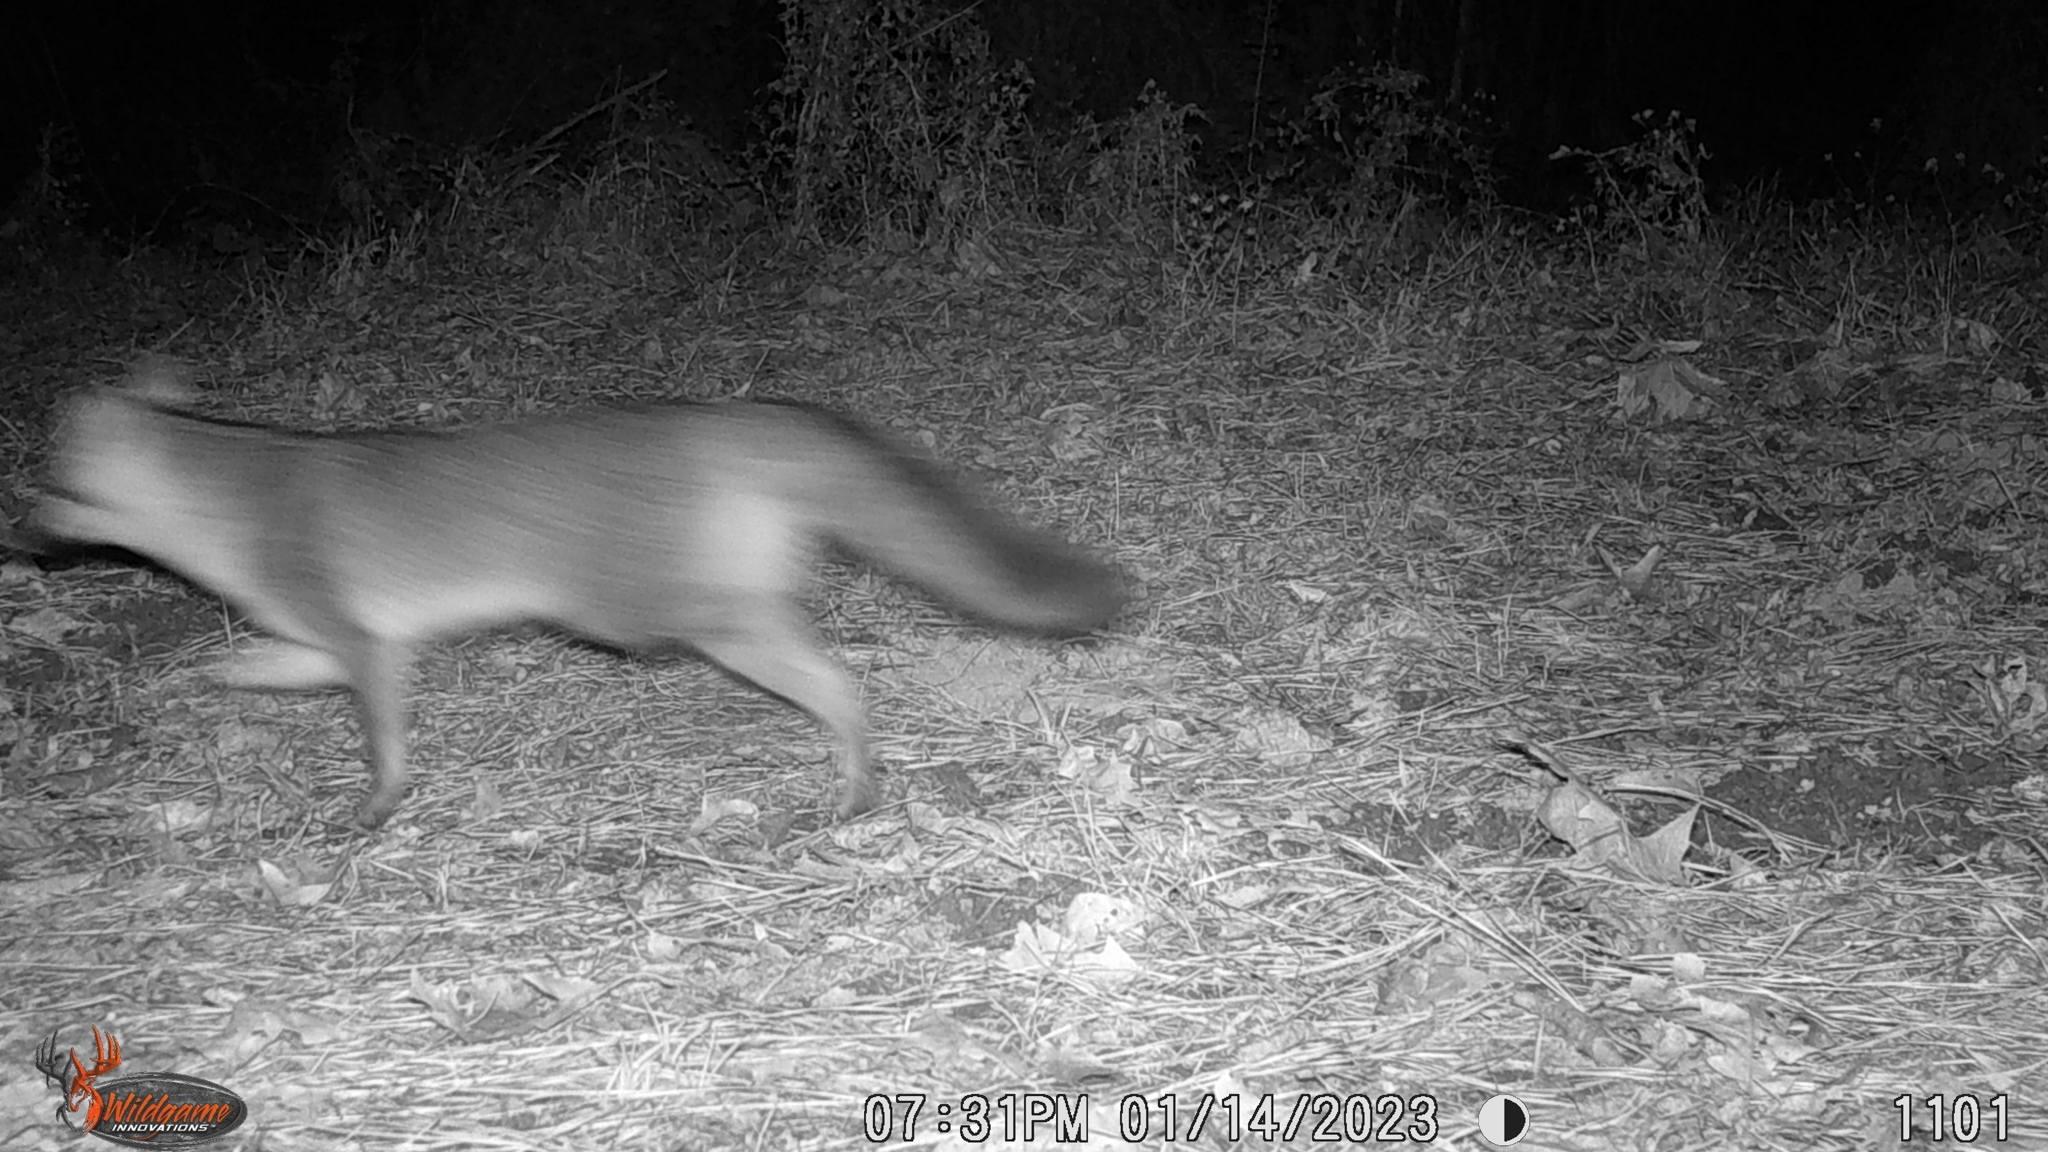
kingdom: Animalia
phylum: Chordata
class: Mammalia
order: Carnivora
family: Canidae
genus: Urocyon
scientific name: Urocyon cinereoargenteus
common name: Gray fox
